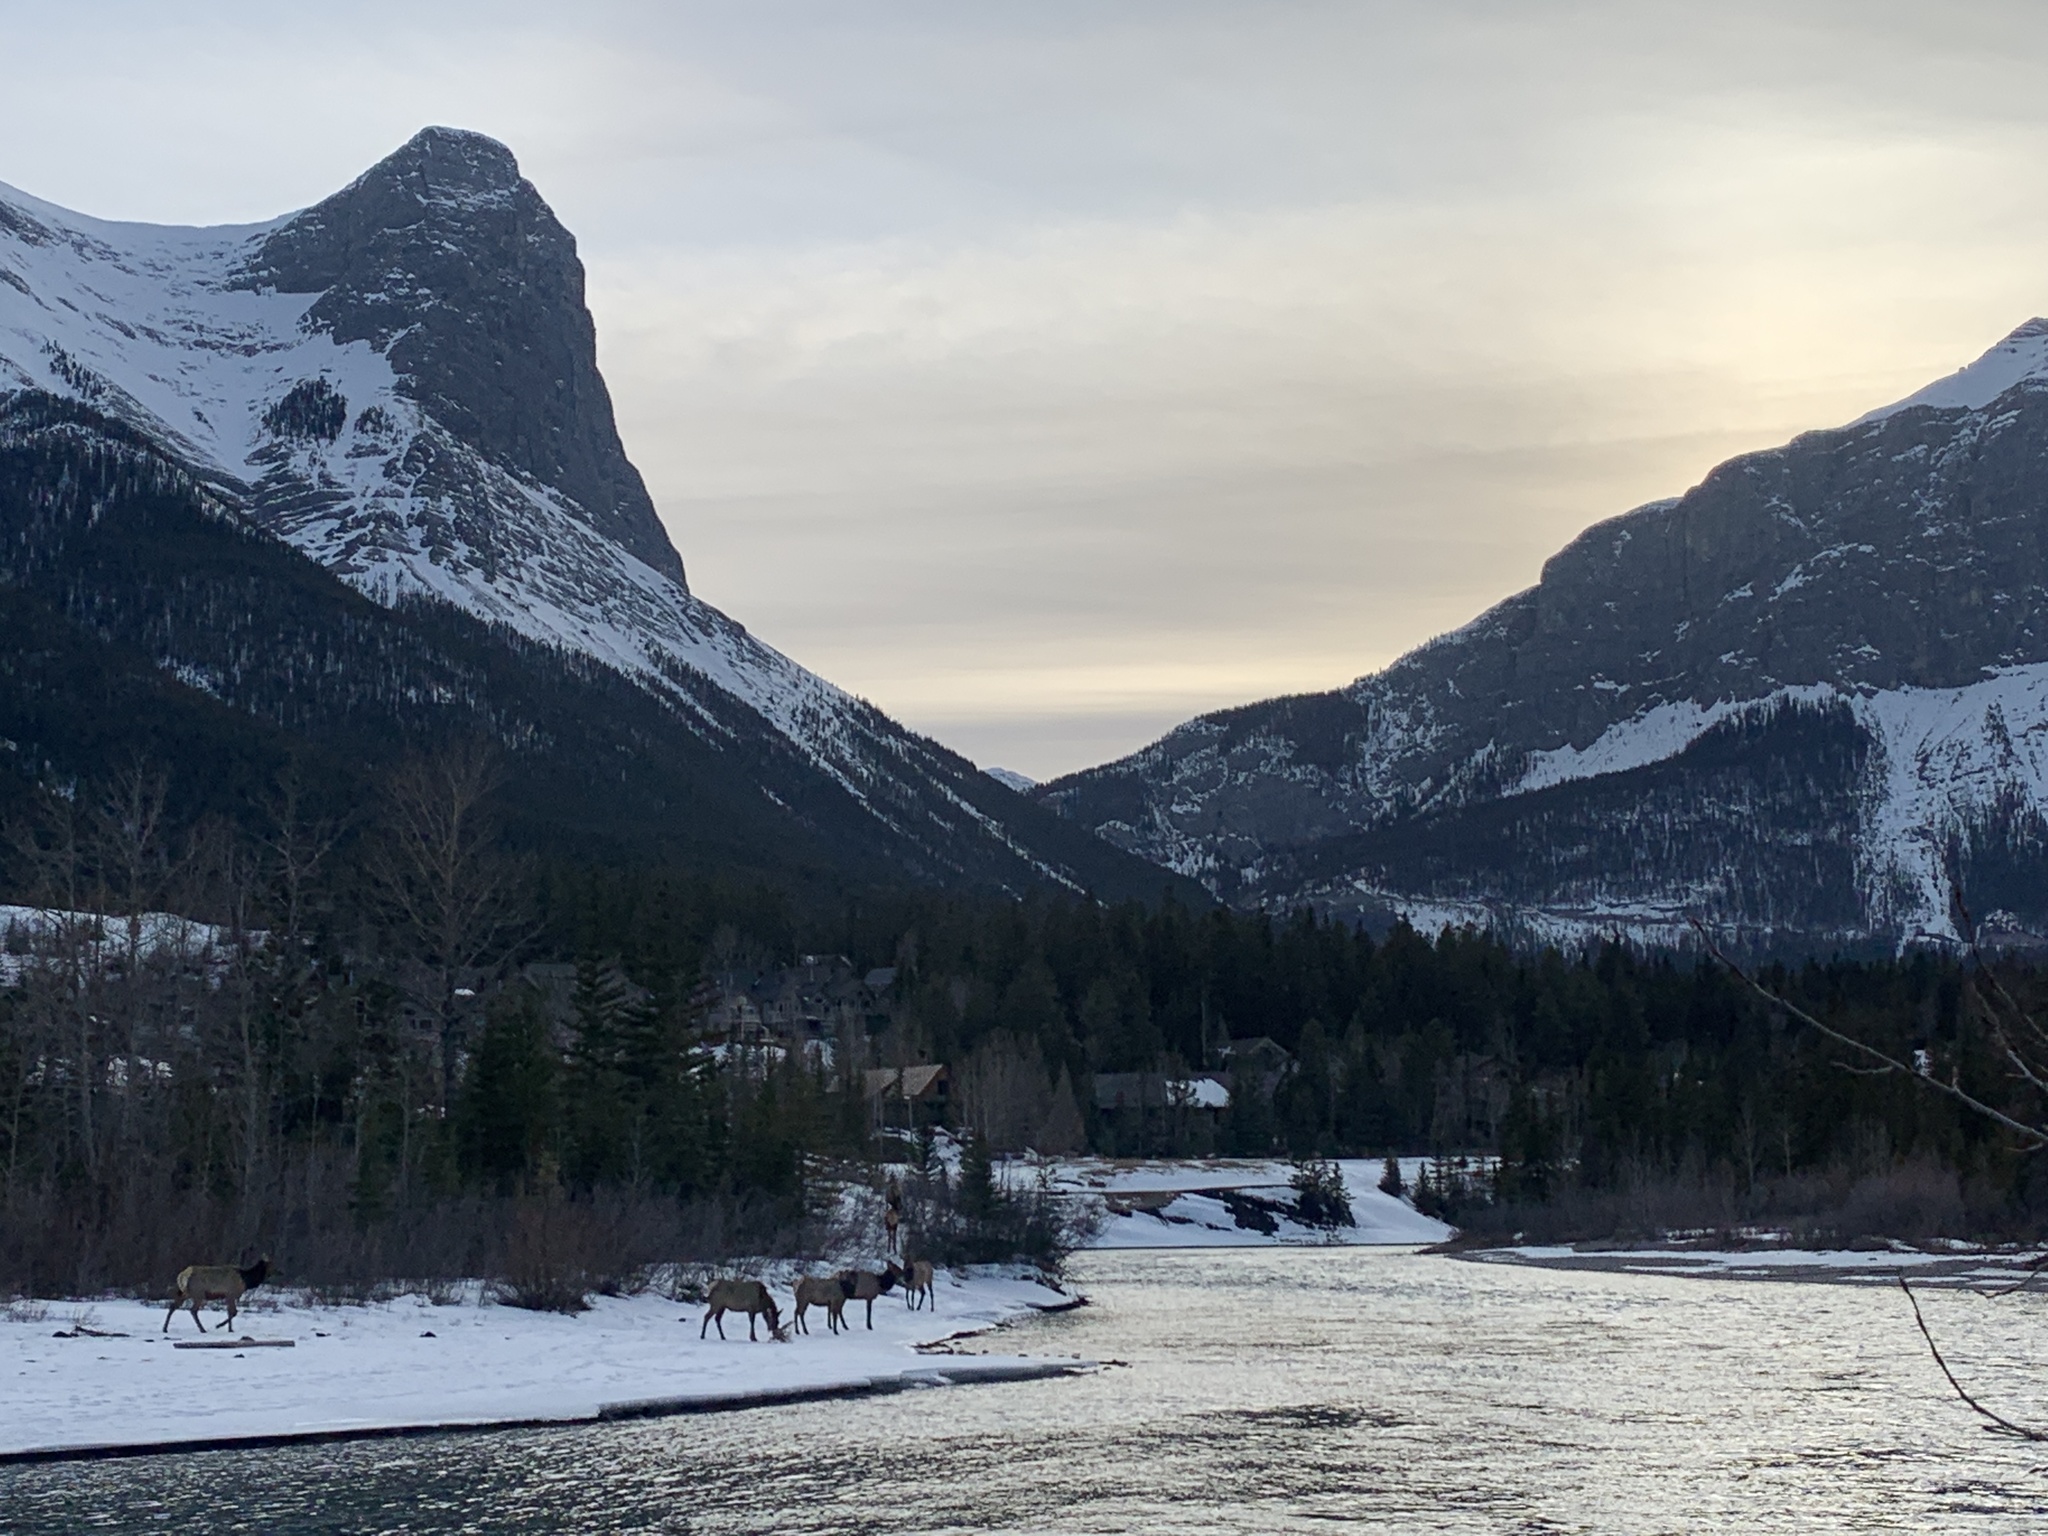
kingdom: Animalia
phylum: Chordata
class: Mammalia
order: Artiodactyla
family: Cervidae
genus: Cervus
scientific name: Cervus elaphus
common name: Red deer
